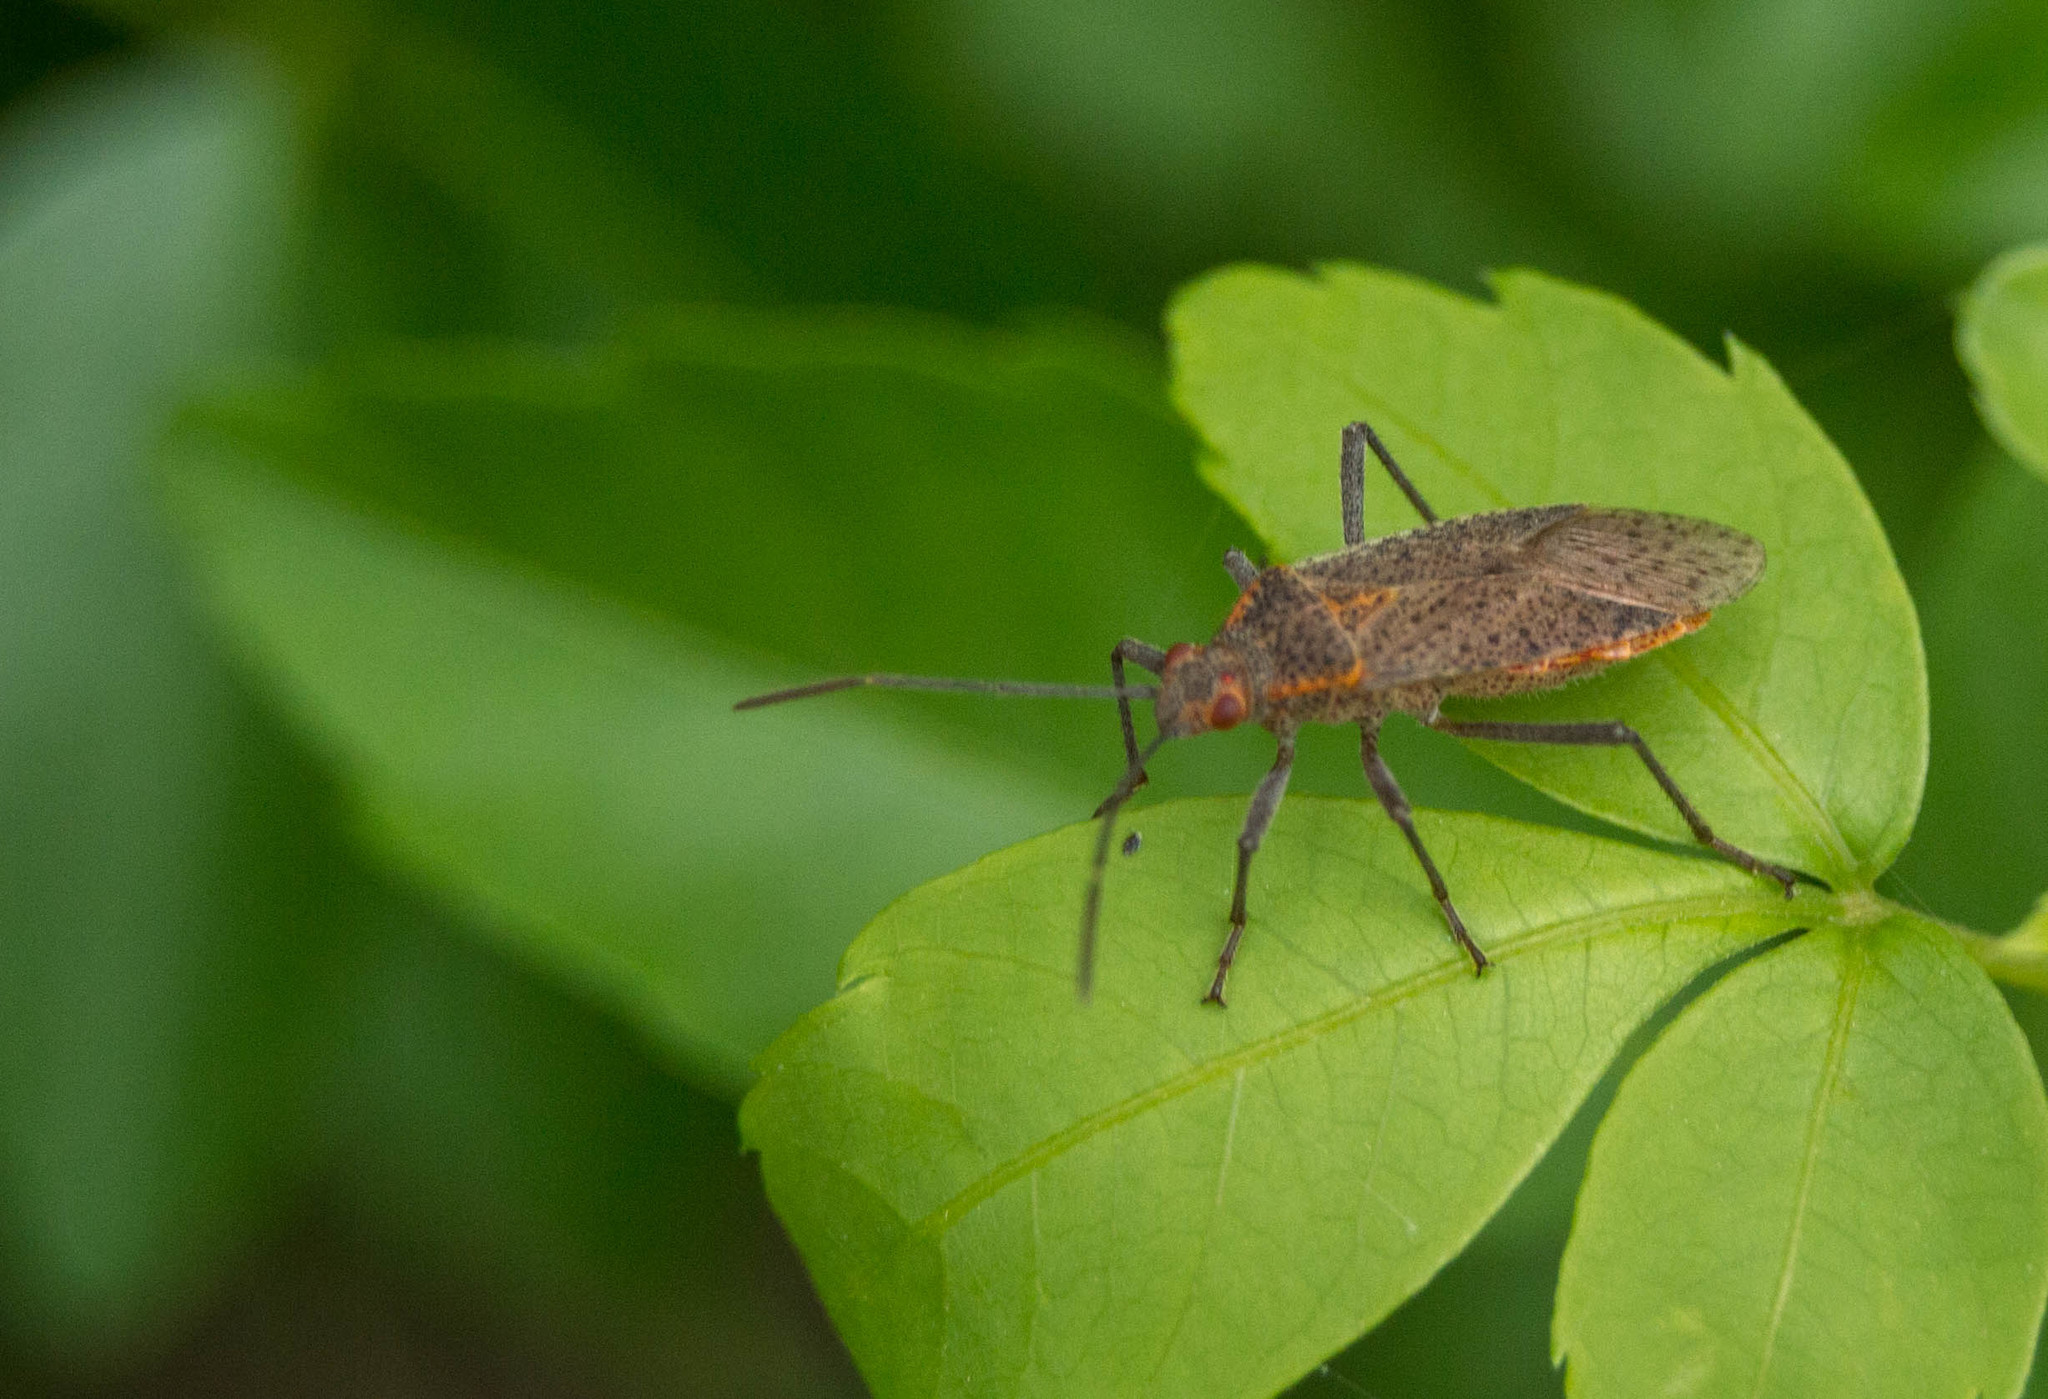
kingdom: Animalia
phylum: Arthropoda
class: Insecta
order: Hemiptera
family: Rhopalidae
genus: Jadera
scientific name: Jadera coturnix
